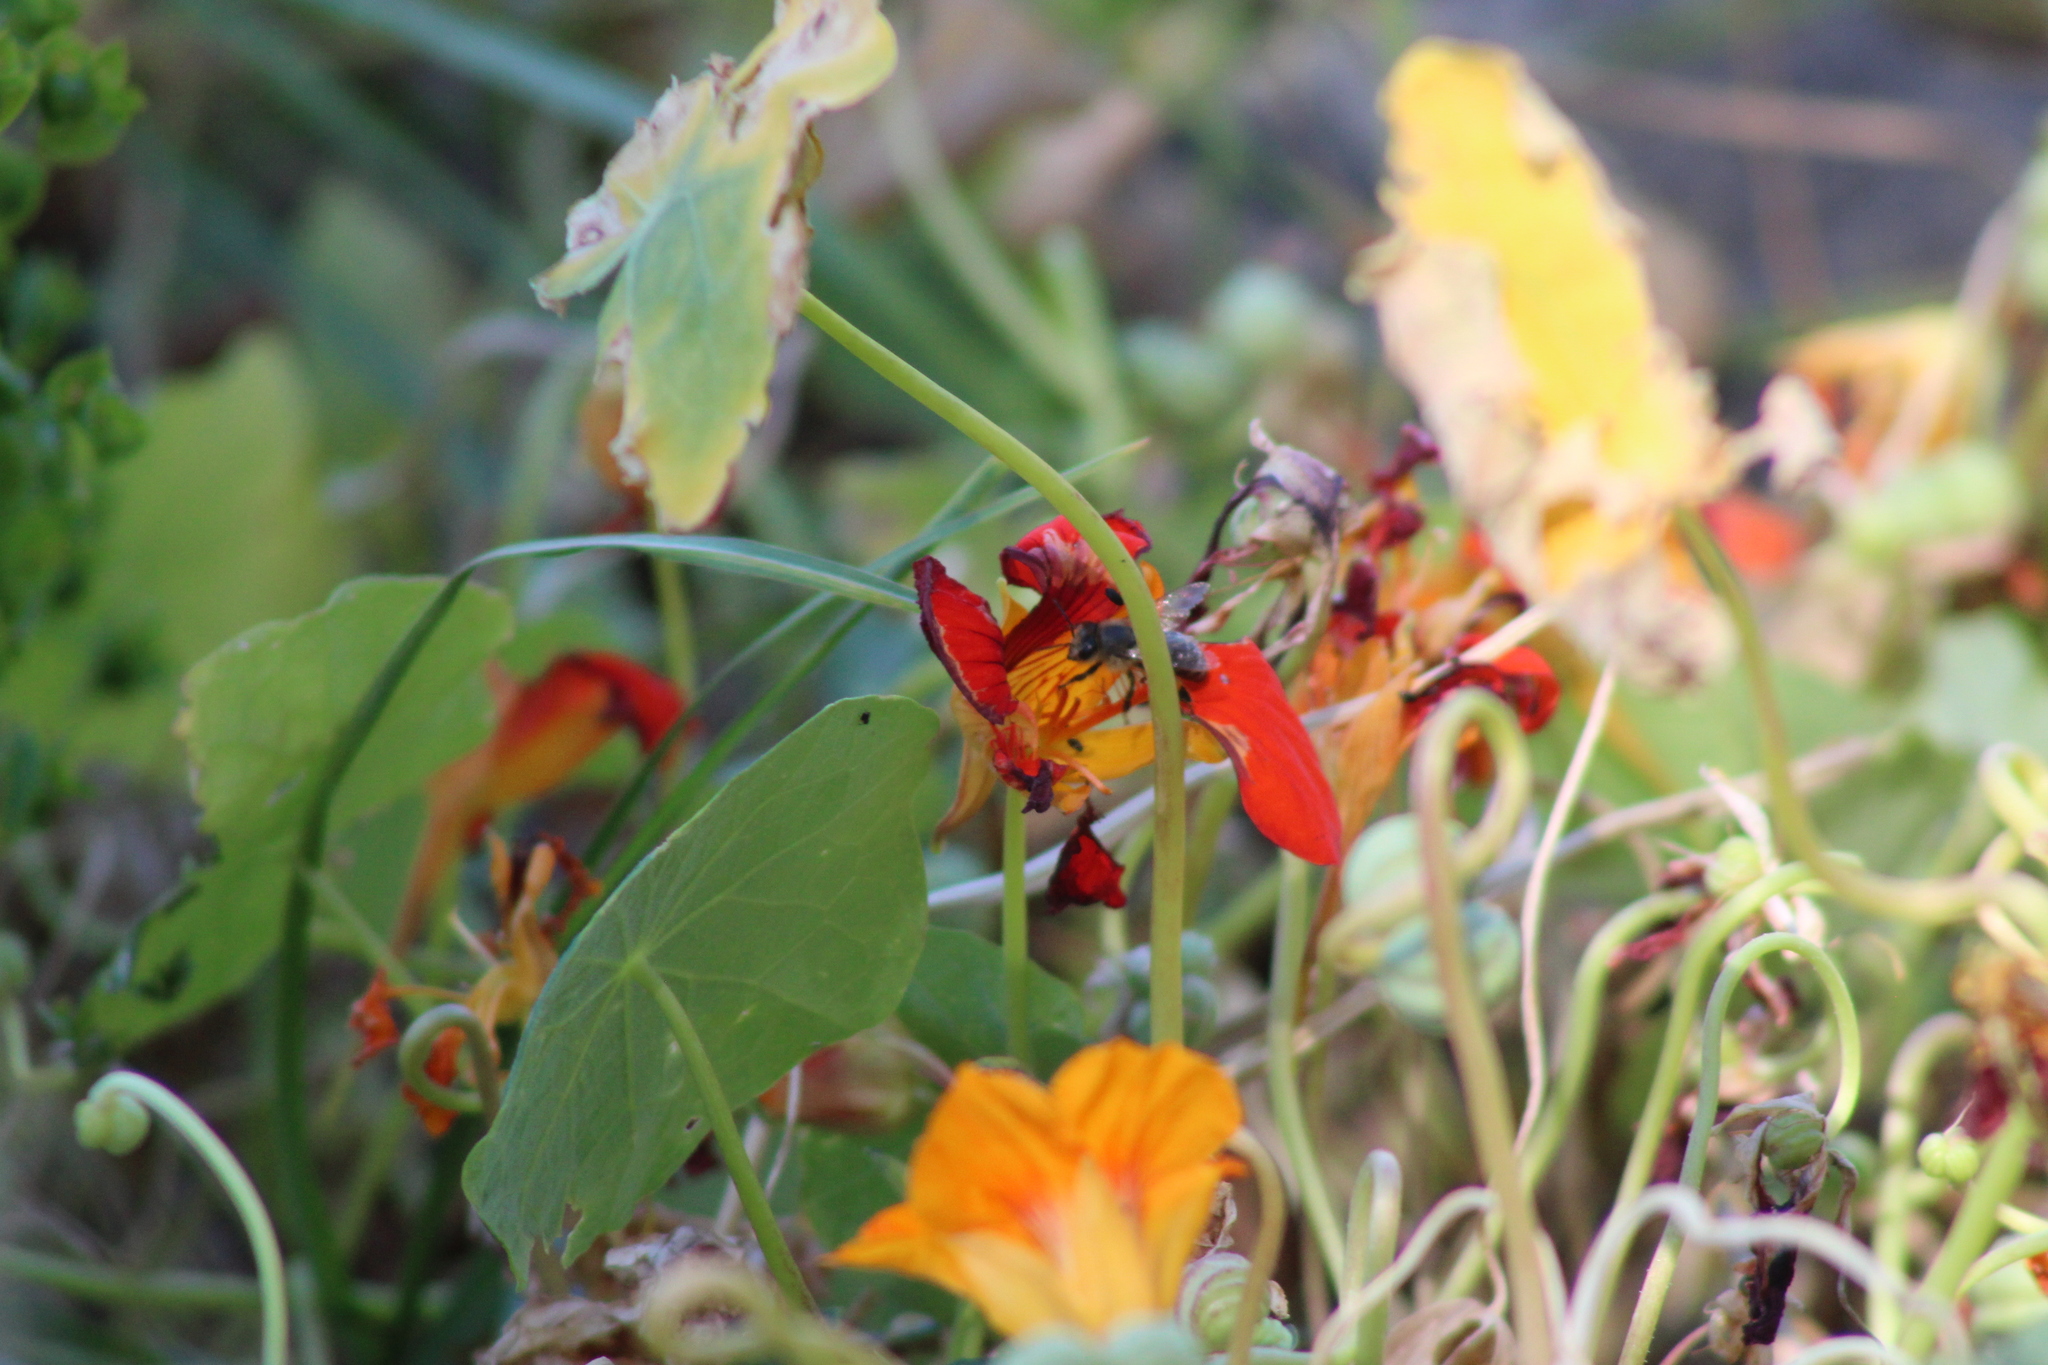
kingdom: Plantae
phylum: Tracheophyta
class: Magnoliopsida
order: Brassicales
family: Tropaeolaceae
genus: Tropaeolum
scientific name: Tropaeolum majus
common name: Nasturtium
